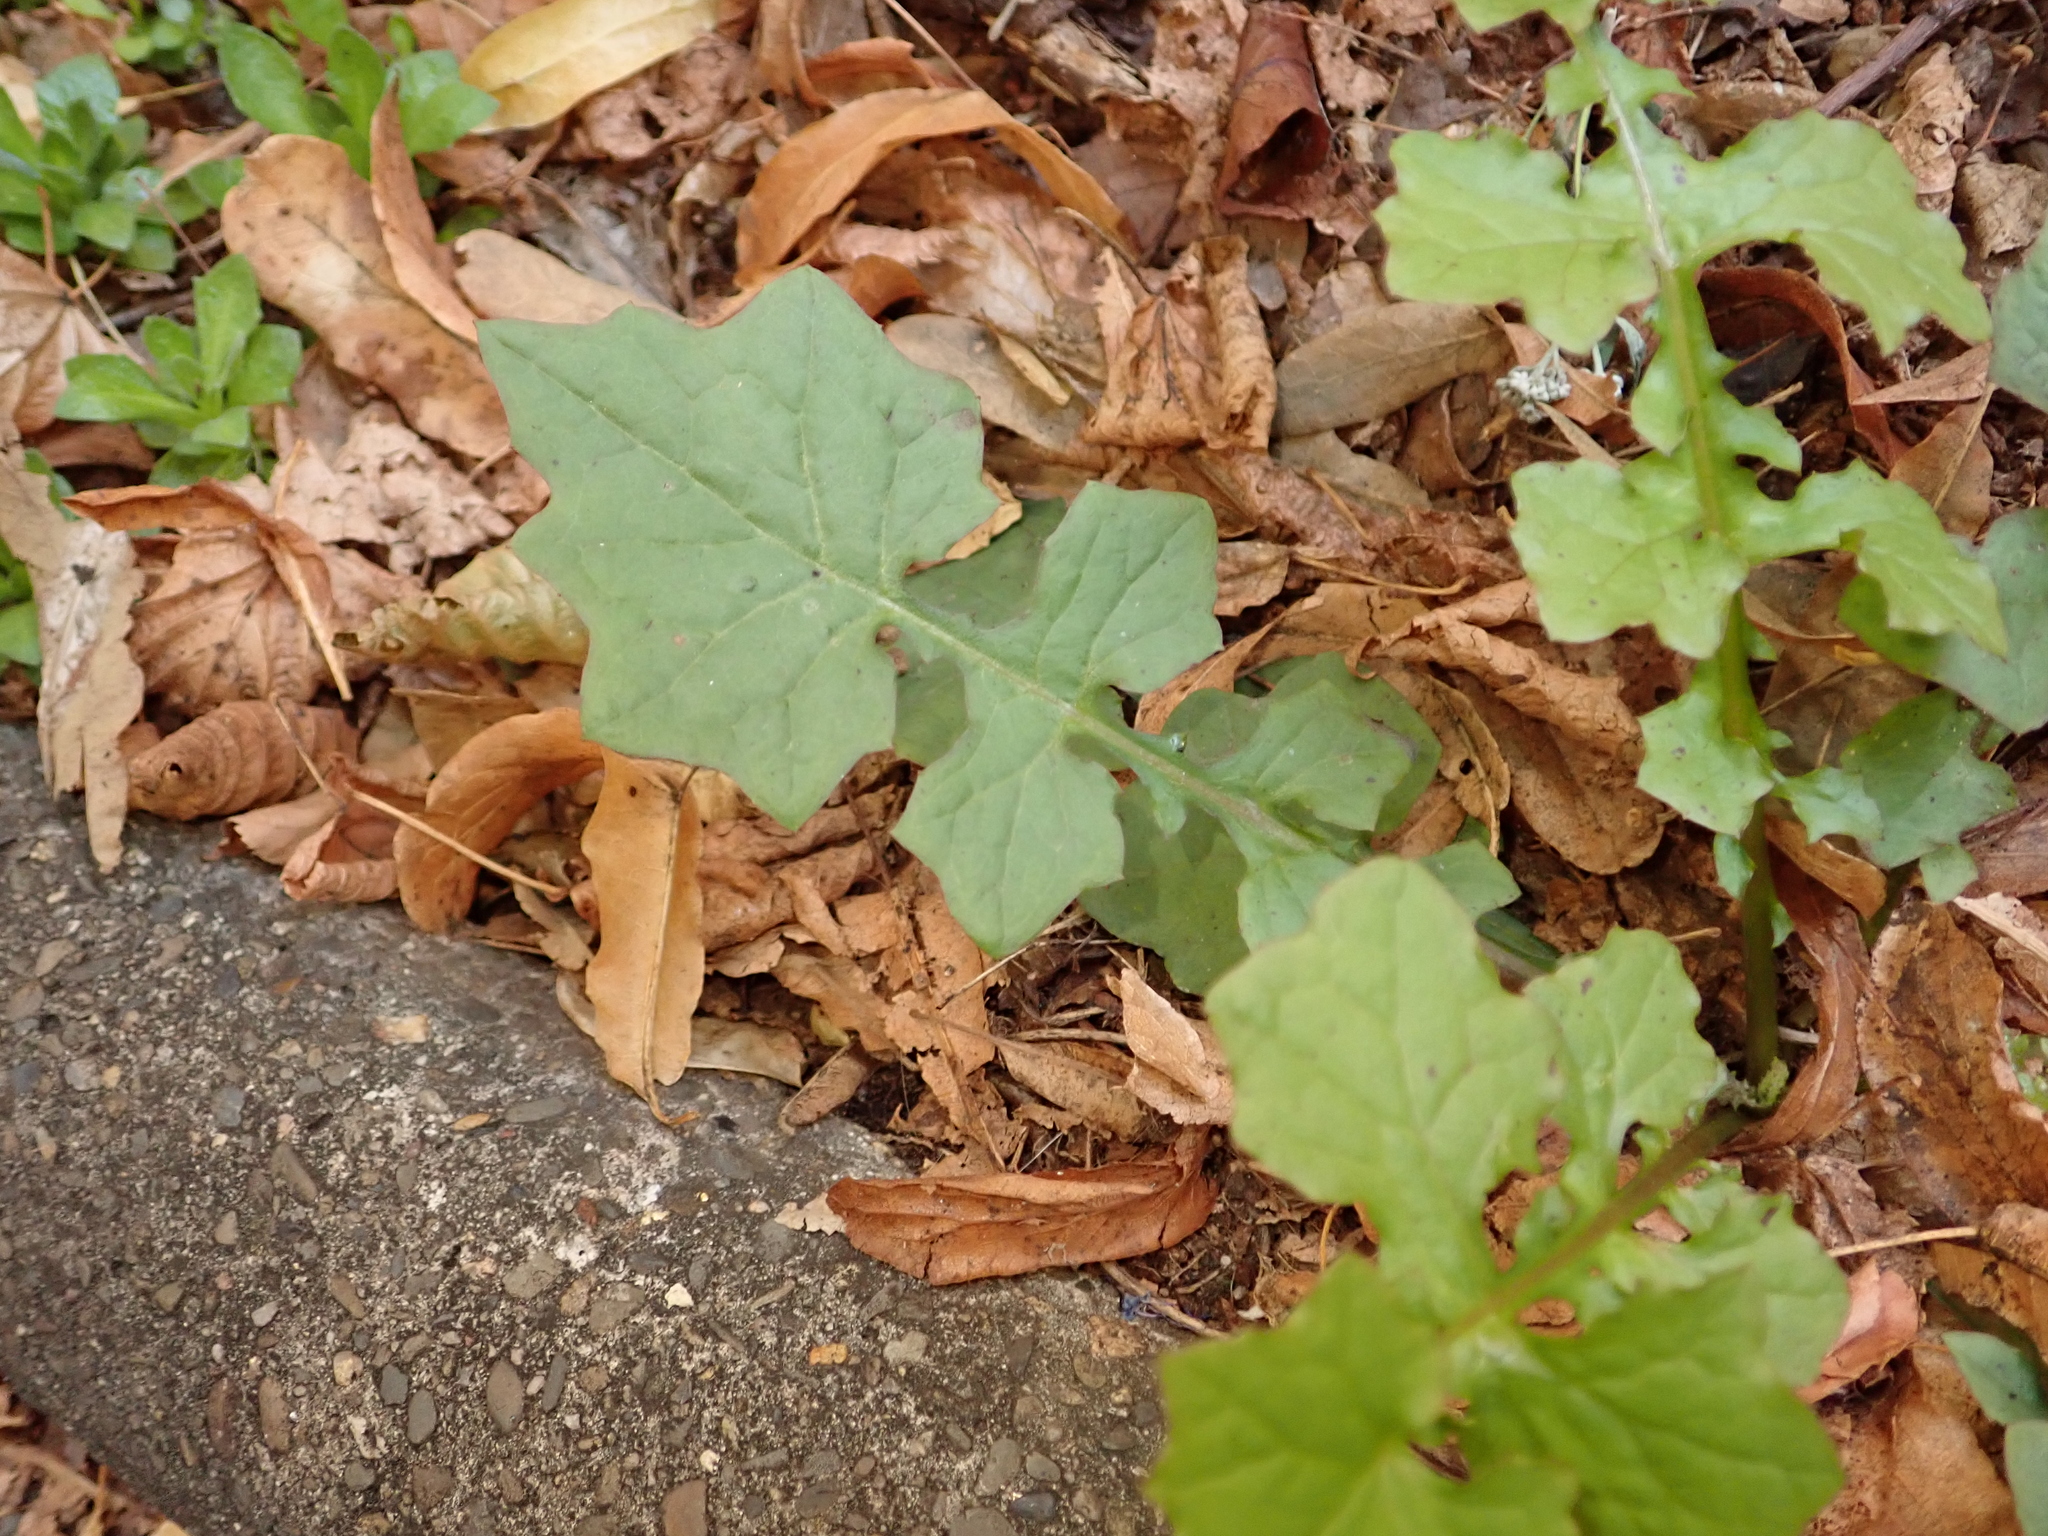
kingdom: Plantae
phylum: Tracheophyta
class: Magnoliopsida
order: Asterales
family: Asteraceae
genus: Mycelis
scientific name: Mycelis muralis
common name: Wall lettuce
